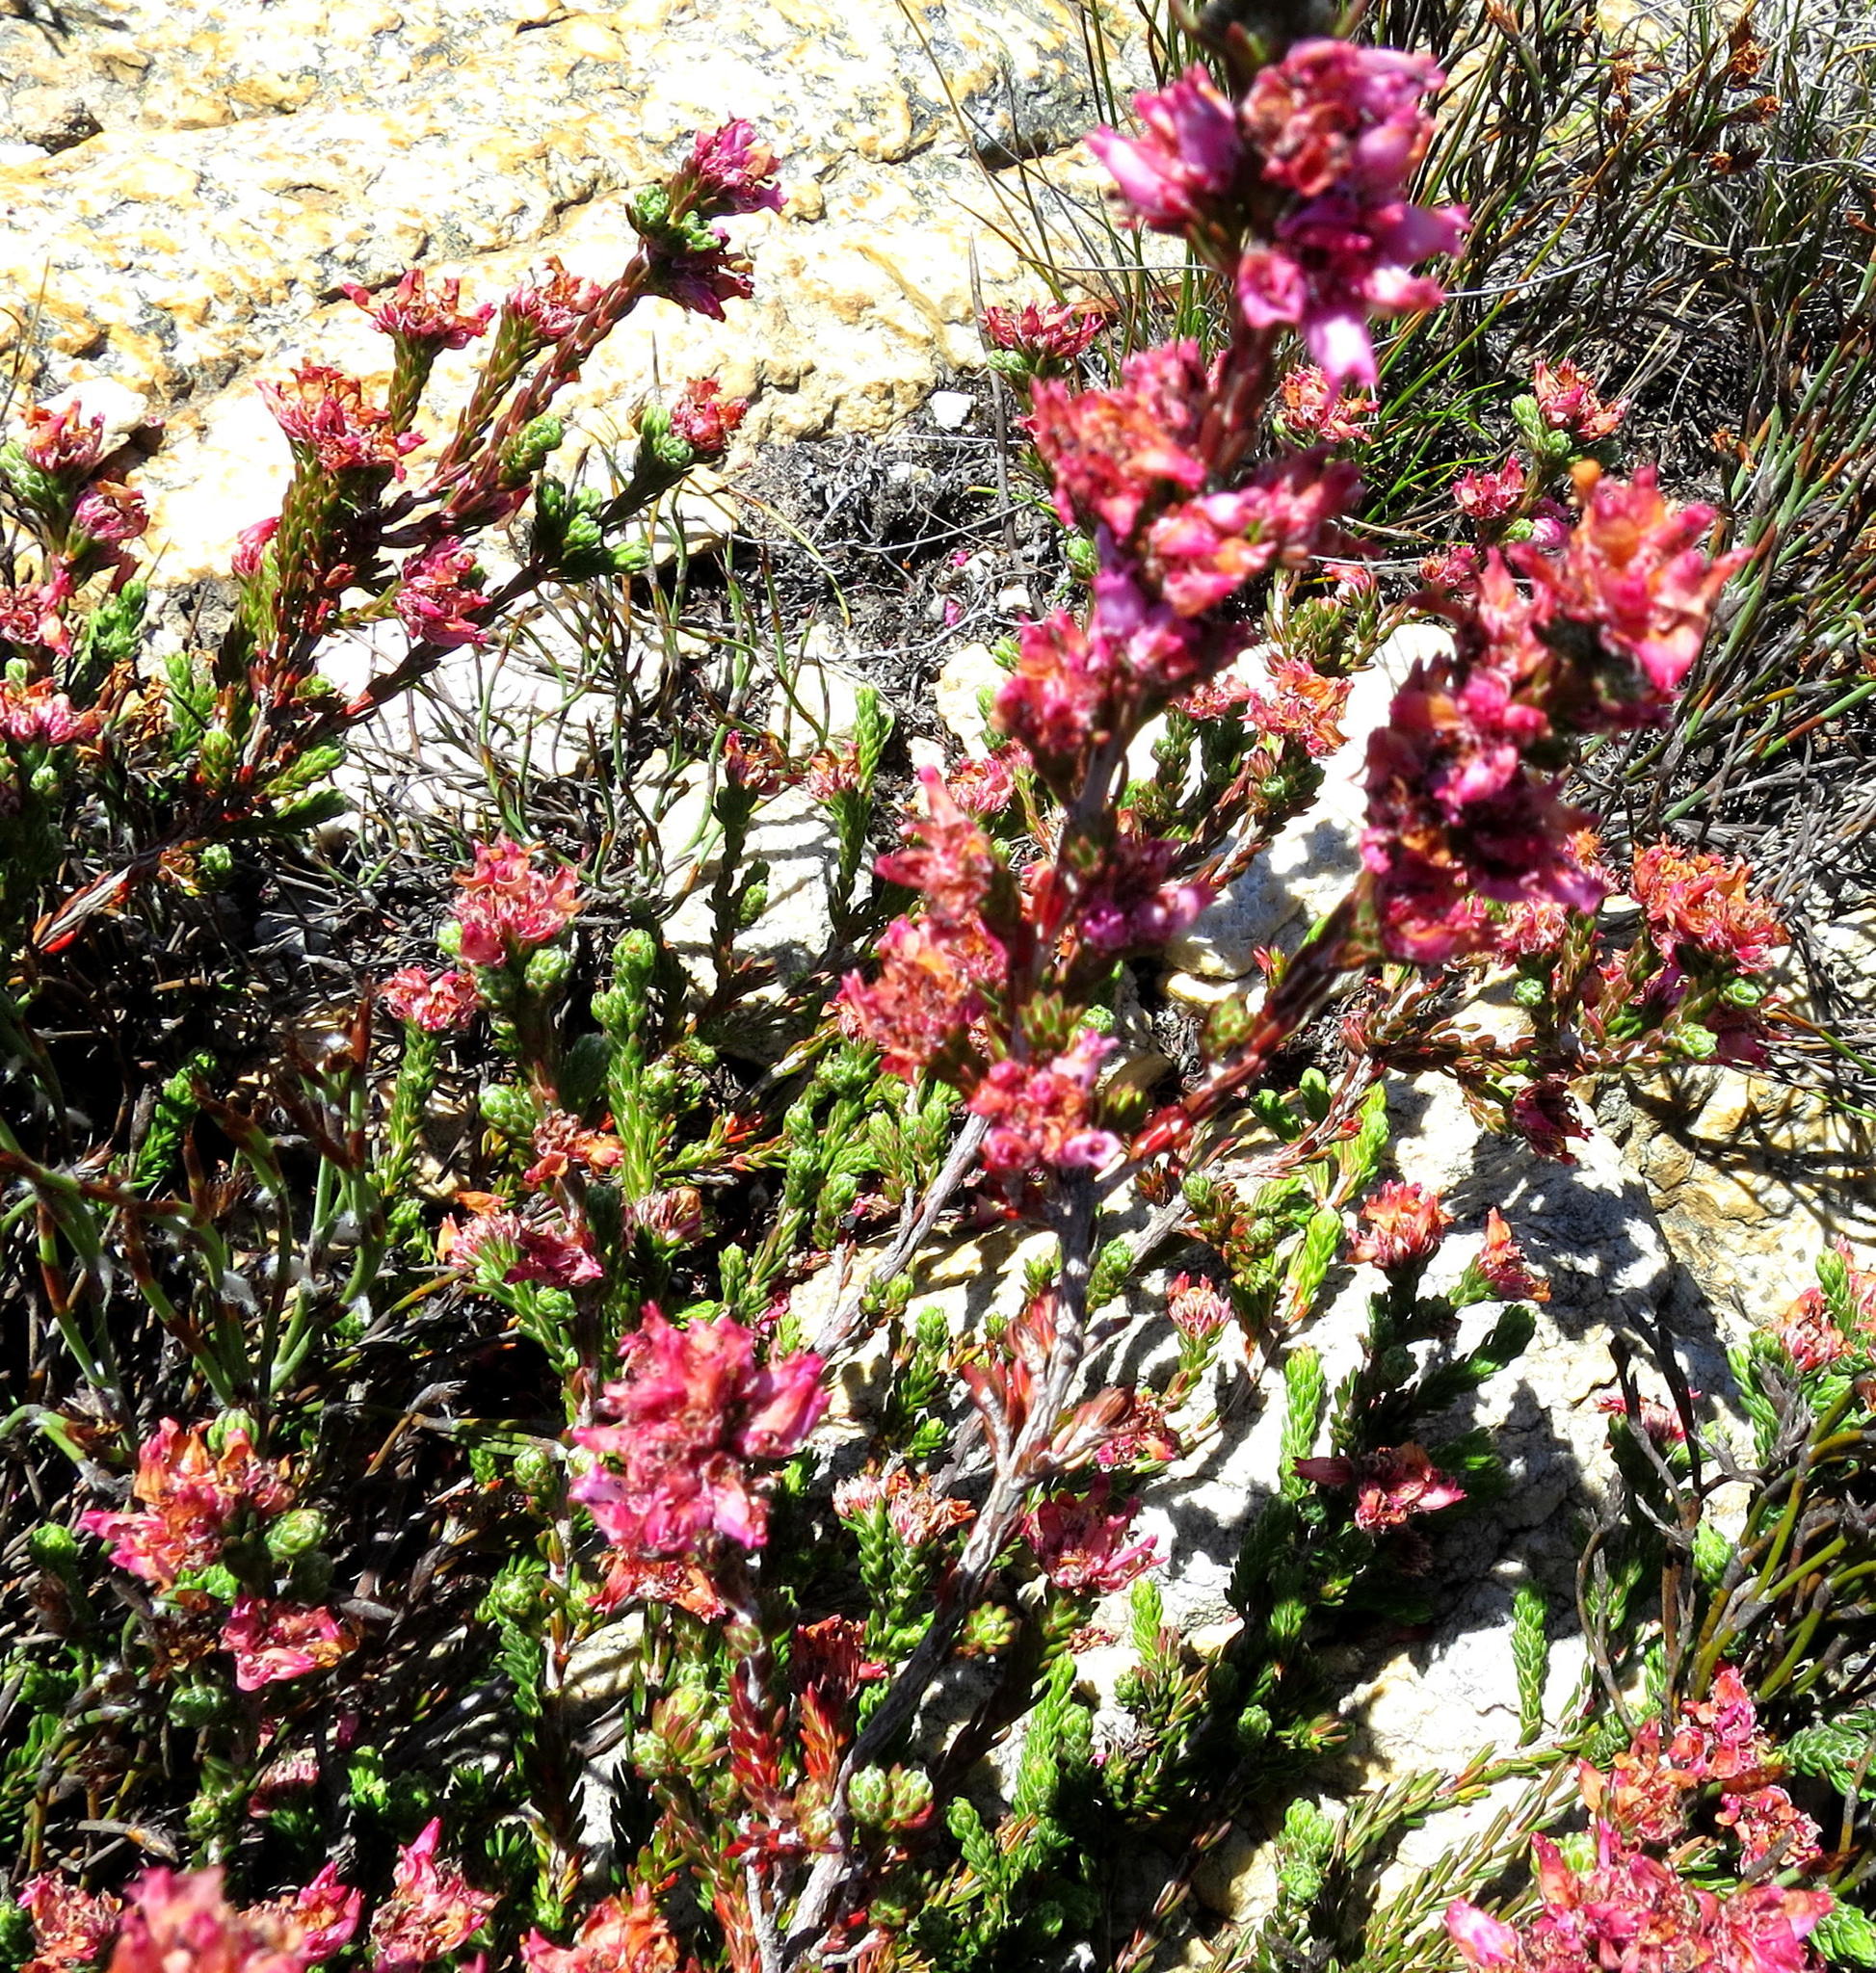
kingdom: Plantae
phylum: Tracheophyta
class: Magnoliopsida
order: Ericales
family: Ericaceae
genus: Erica
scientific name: Erica taylorii
